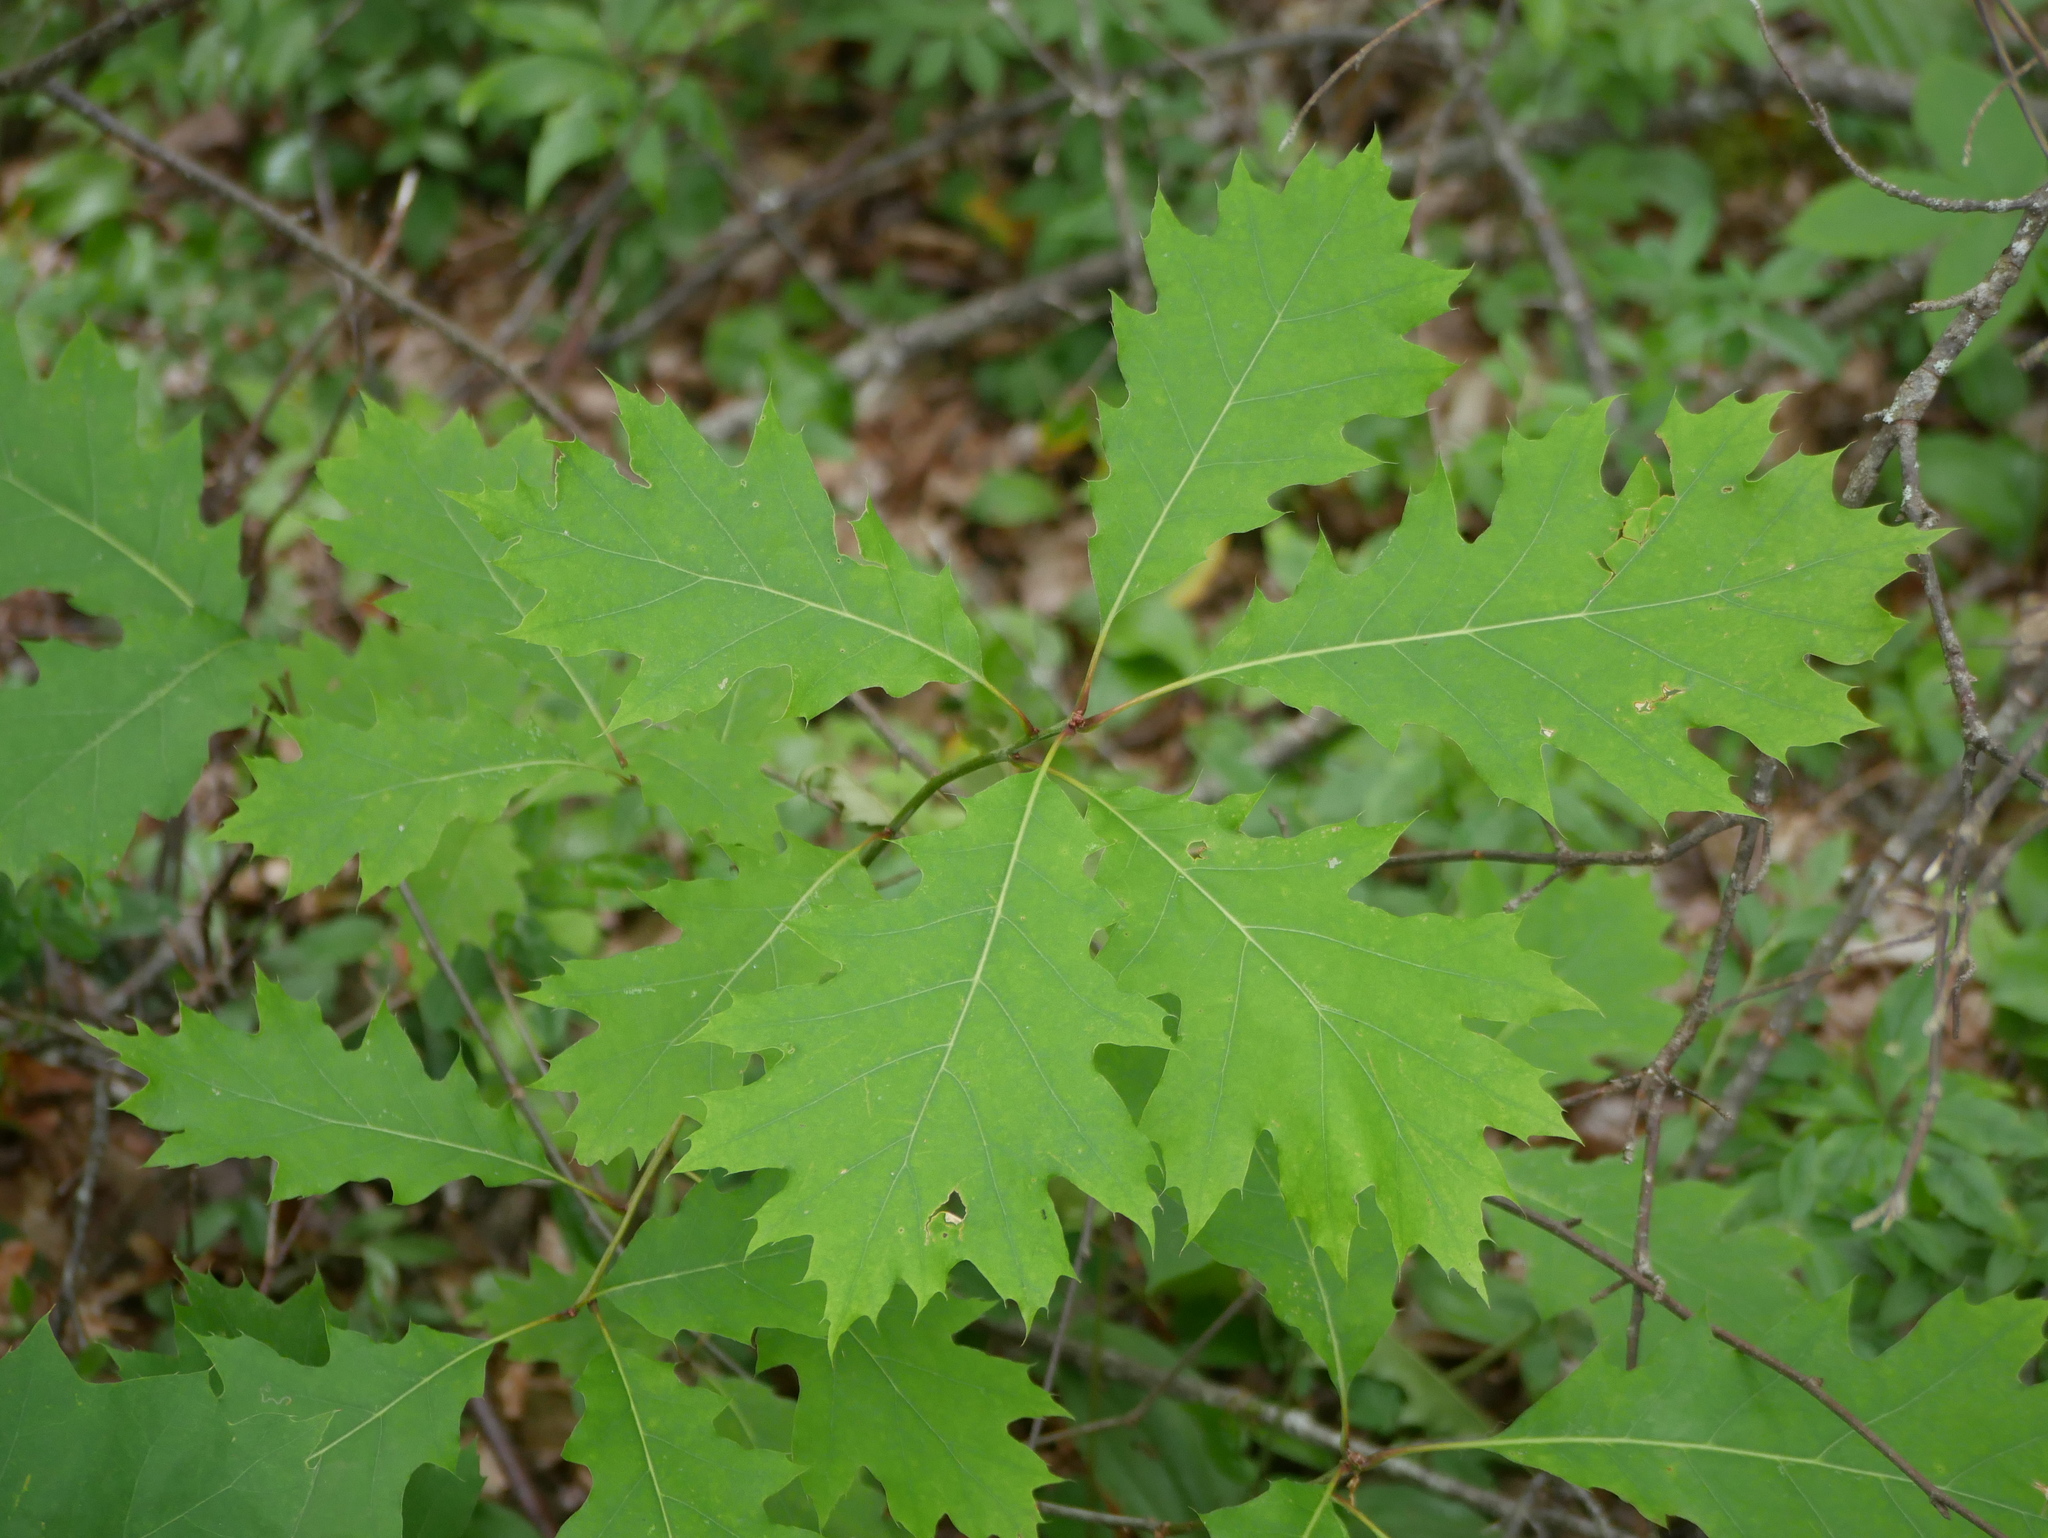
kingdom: Plantae
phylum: Tracheophyta
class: Magnoliopsida
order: Fagales
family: Fagaceae
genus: Quercus
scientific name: Quercus rubra
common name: Red oak
